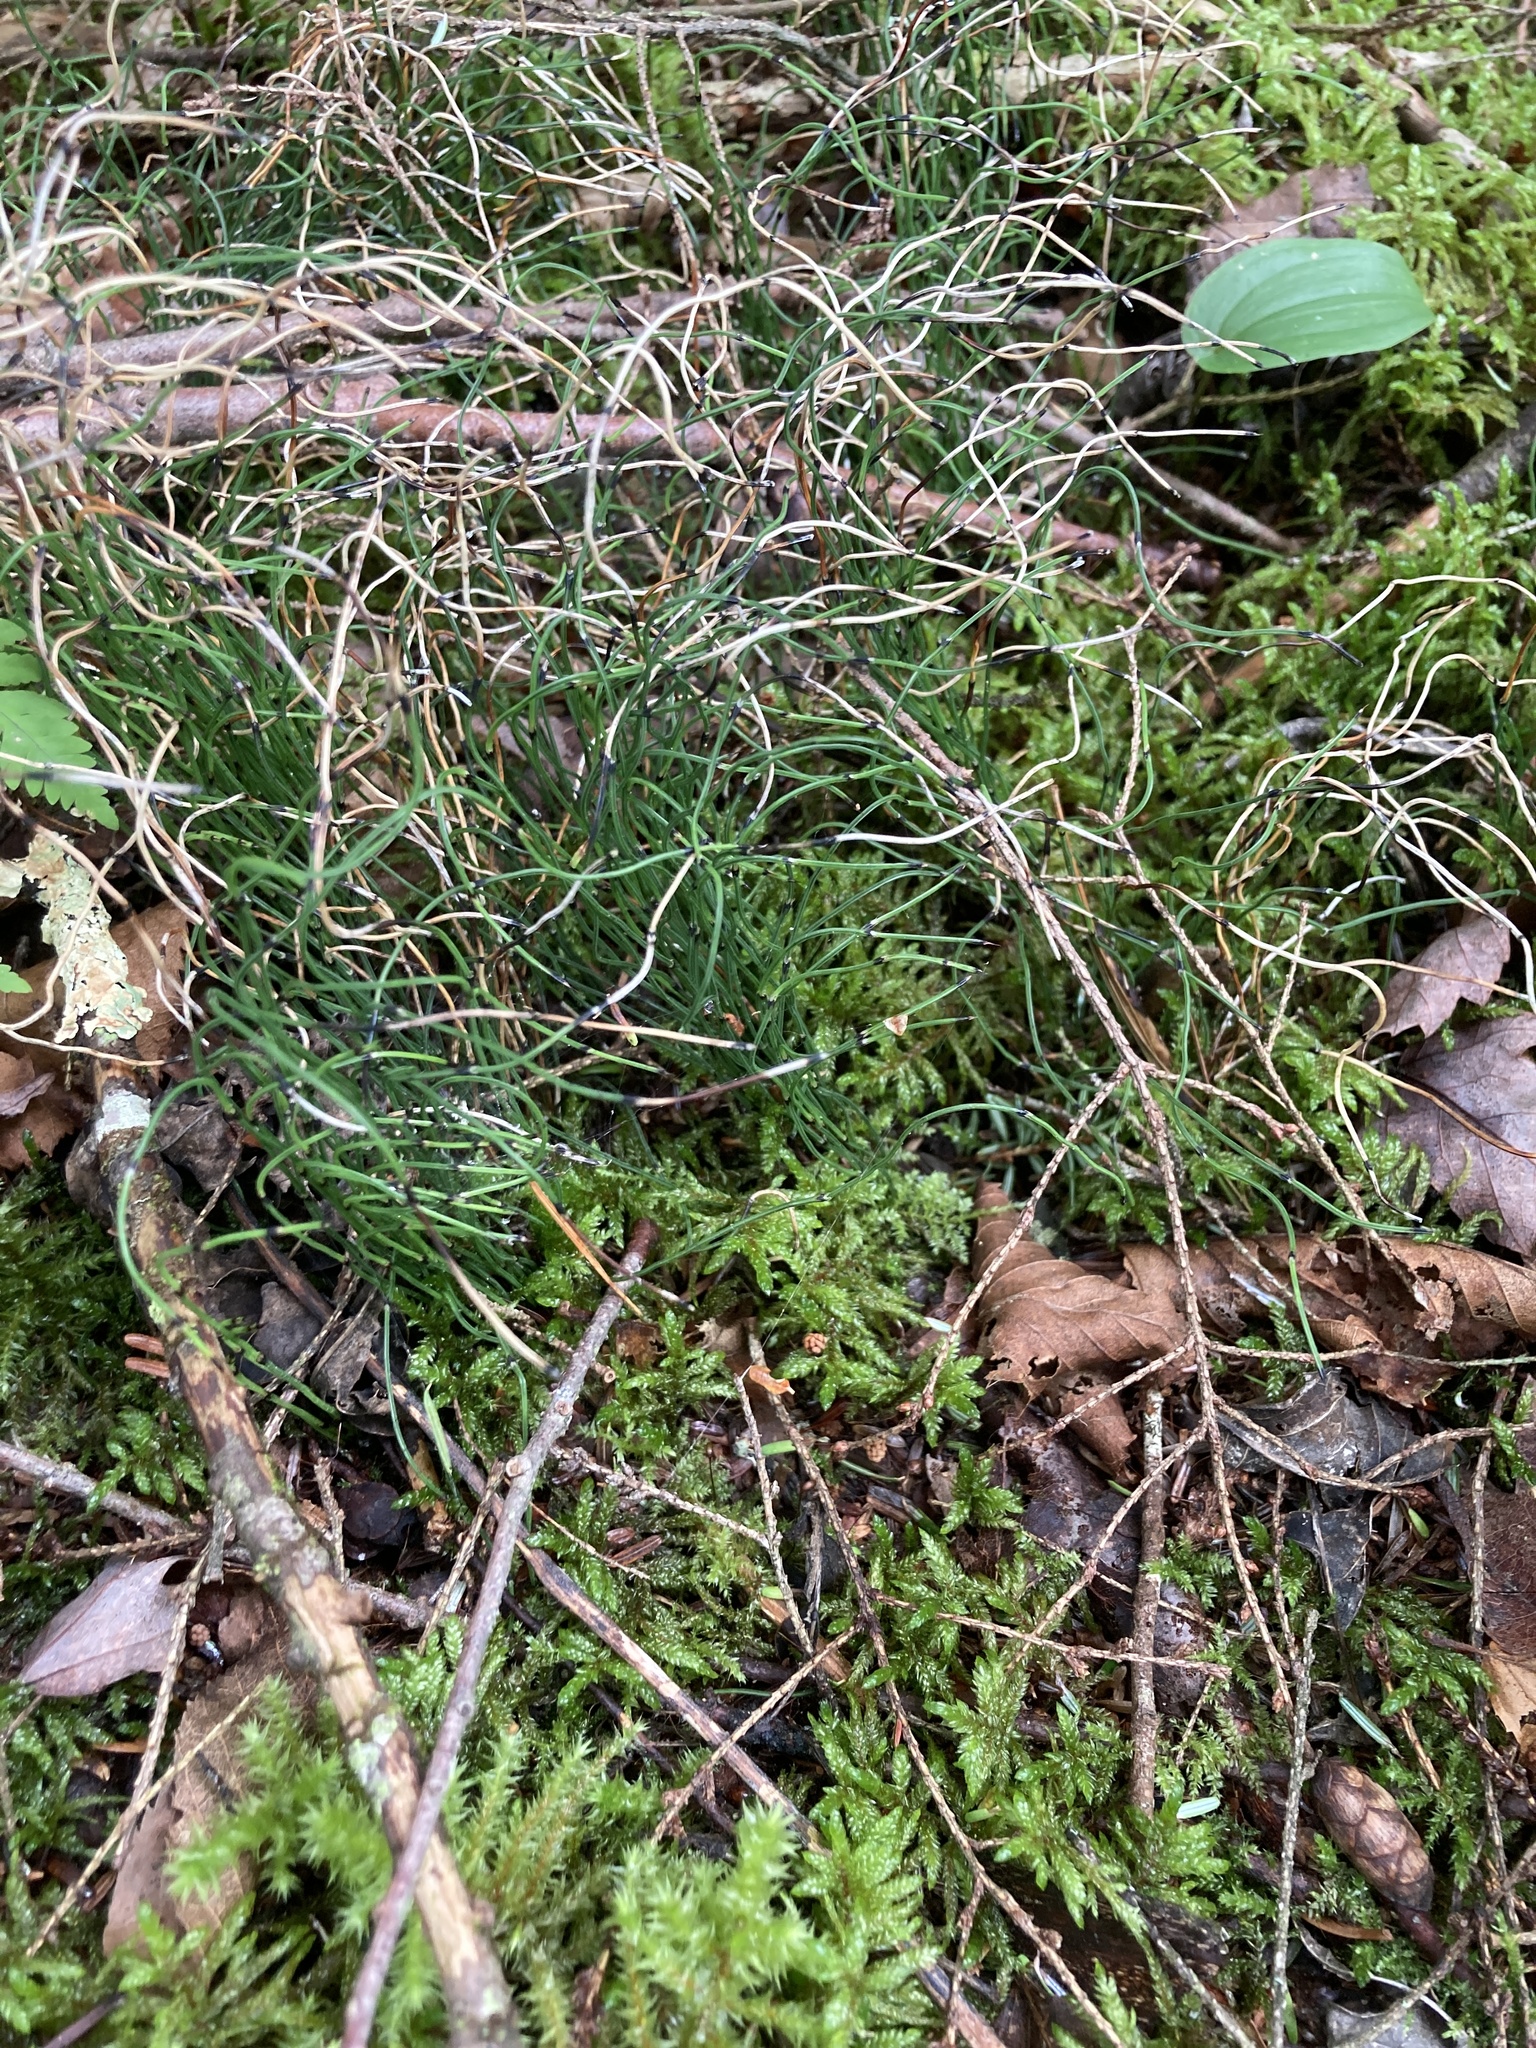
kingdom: Plantae
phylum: Tracheophyta
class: Polypodiopsida
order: Equisetales
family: Equisetaceae
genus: Equisetum
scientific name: Equisetum scirpoides
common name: Delicate horsetail
